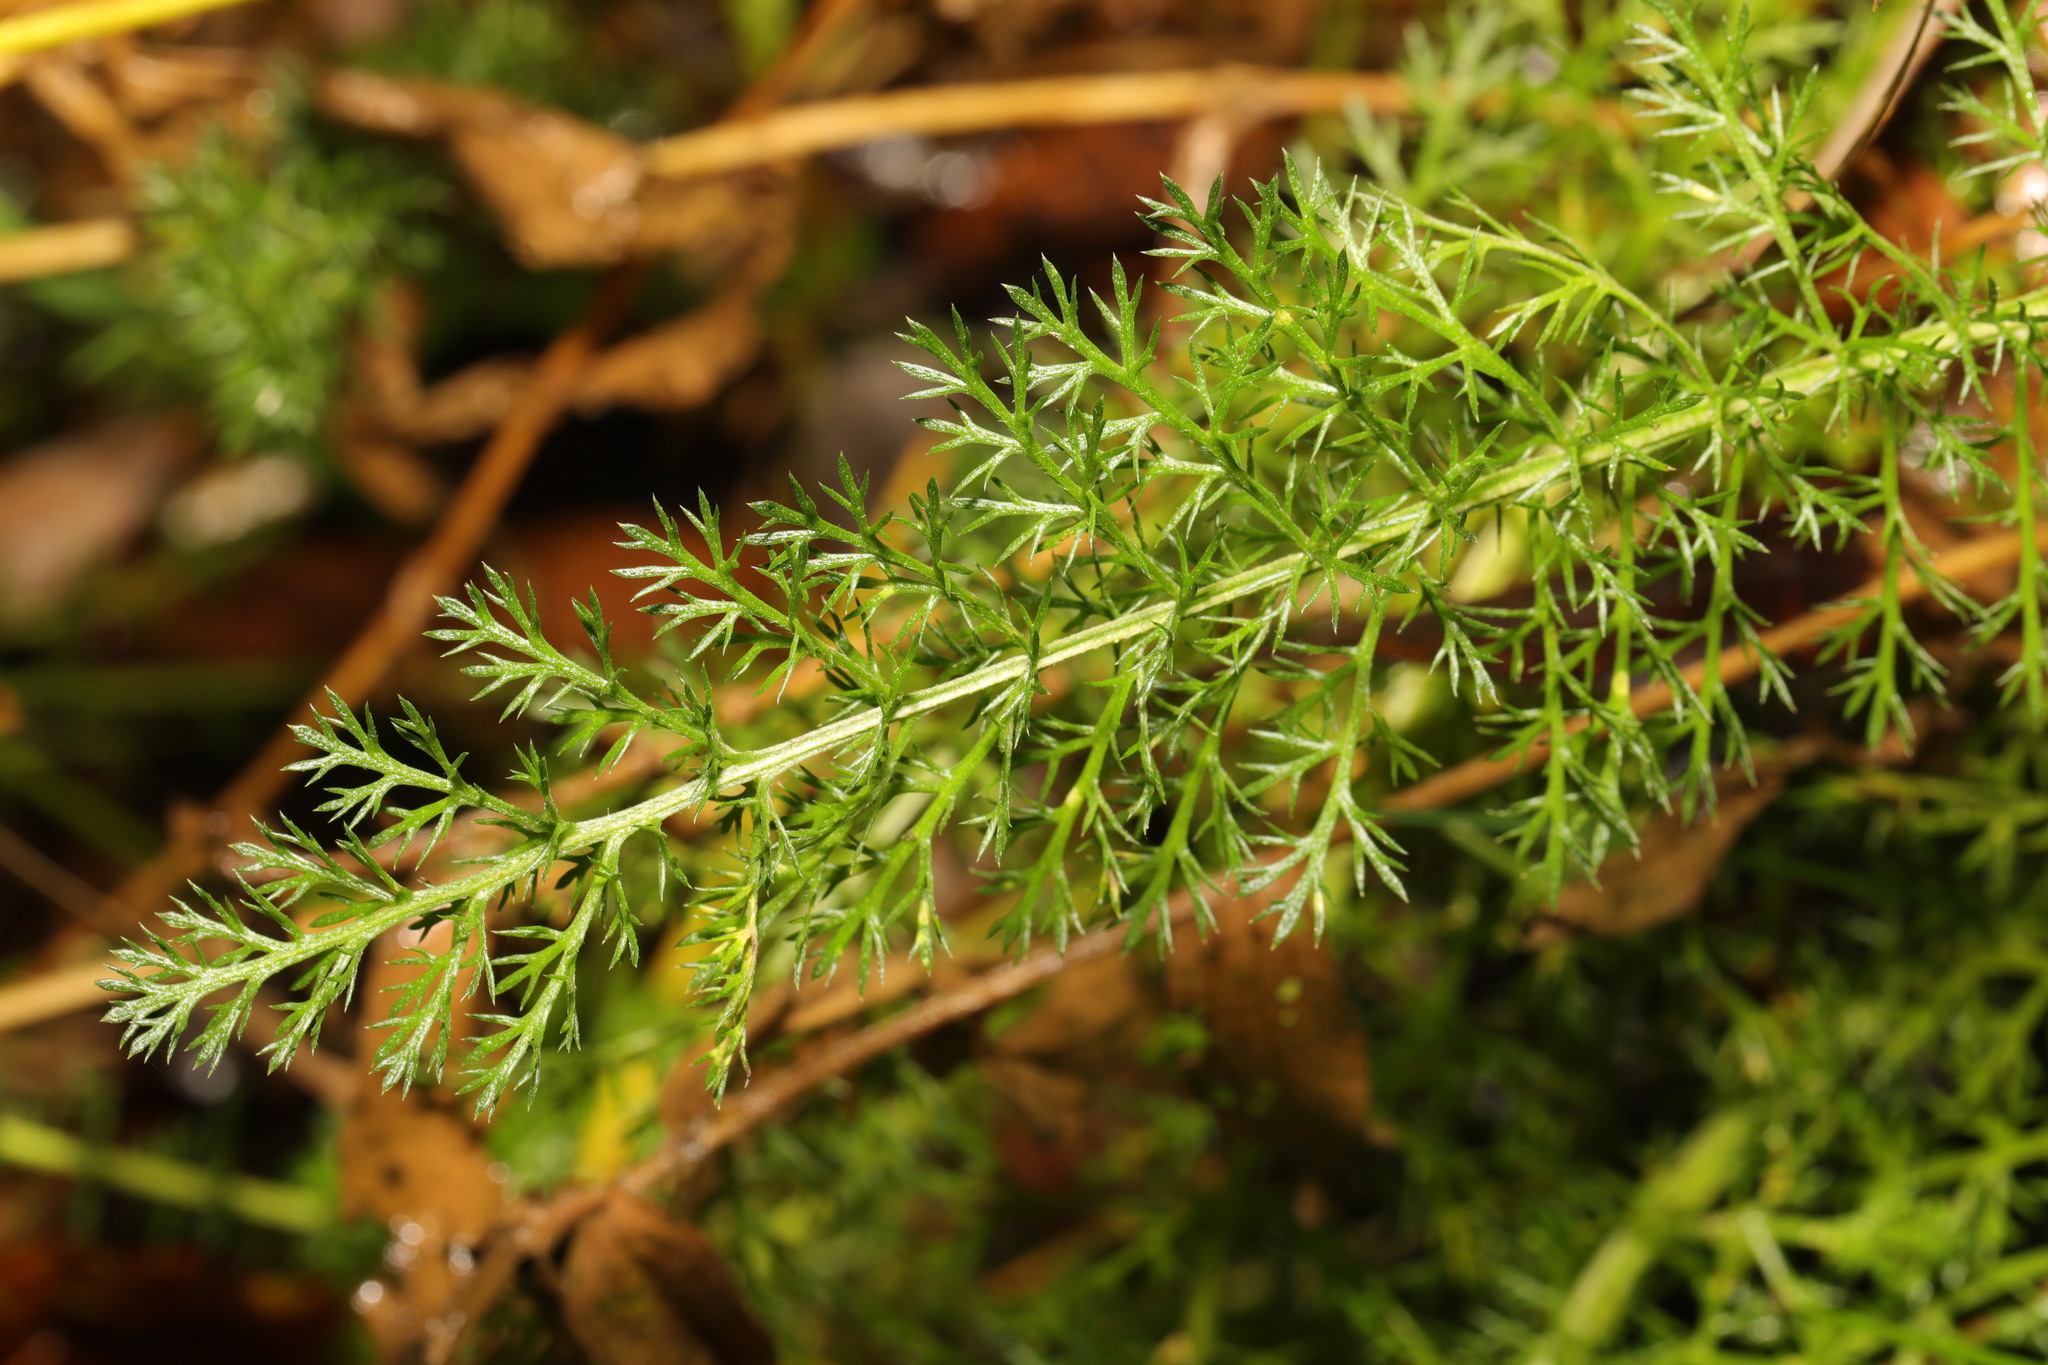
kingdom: Plantae
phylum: Tracheophyta
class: Magnoliopsida
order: Asterales
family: Asteraceae
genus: Achillea
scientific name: Achillea millefolium
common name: Yarrow
